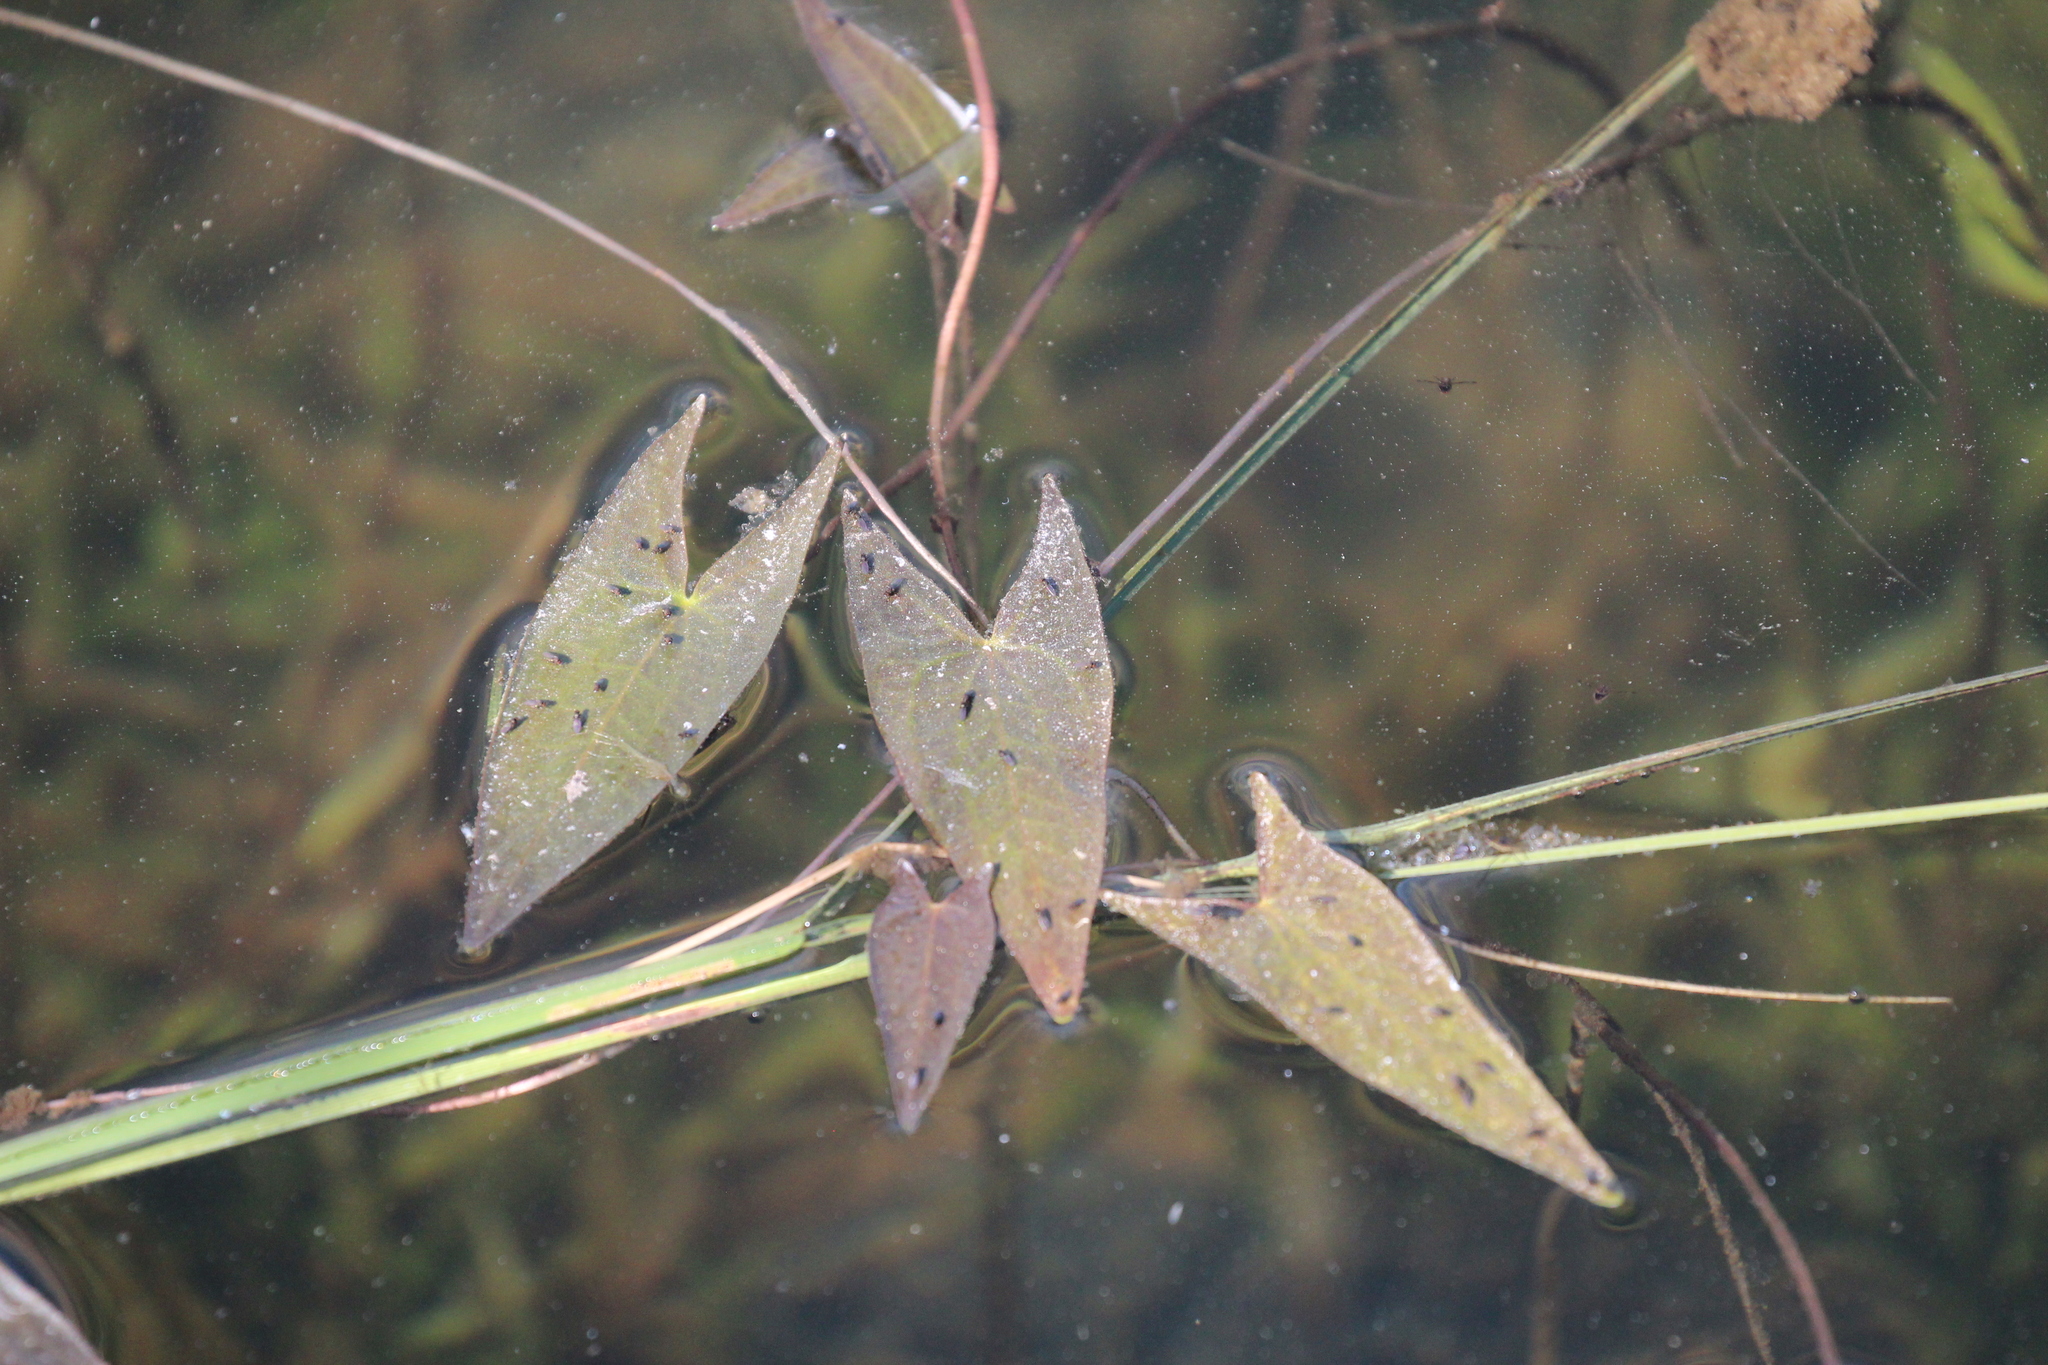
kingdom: Plantae
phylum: Tracheophyta
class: Liliopsida
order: Alismatales
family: Alismataceae
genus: Sagittaria
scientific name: Sagittaria cuneata
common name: Northern arrowhead
